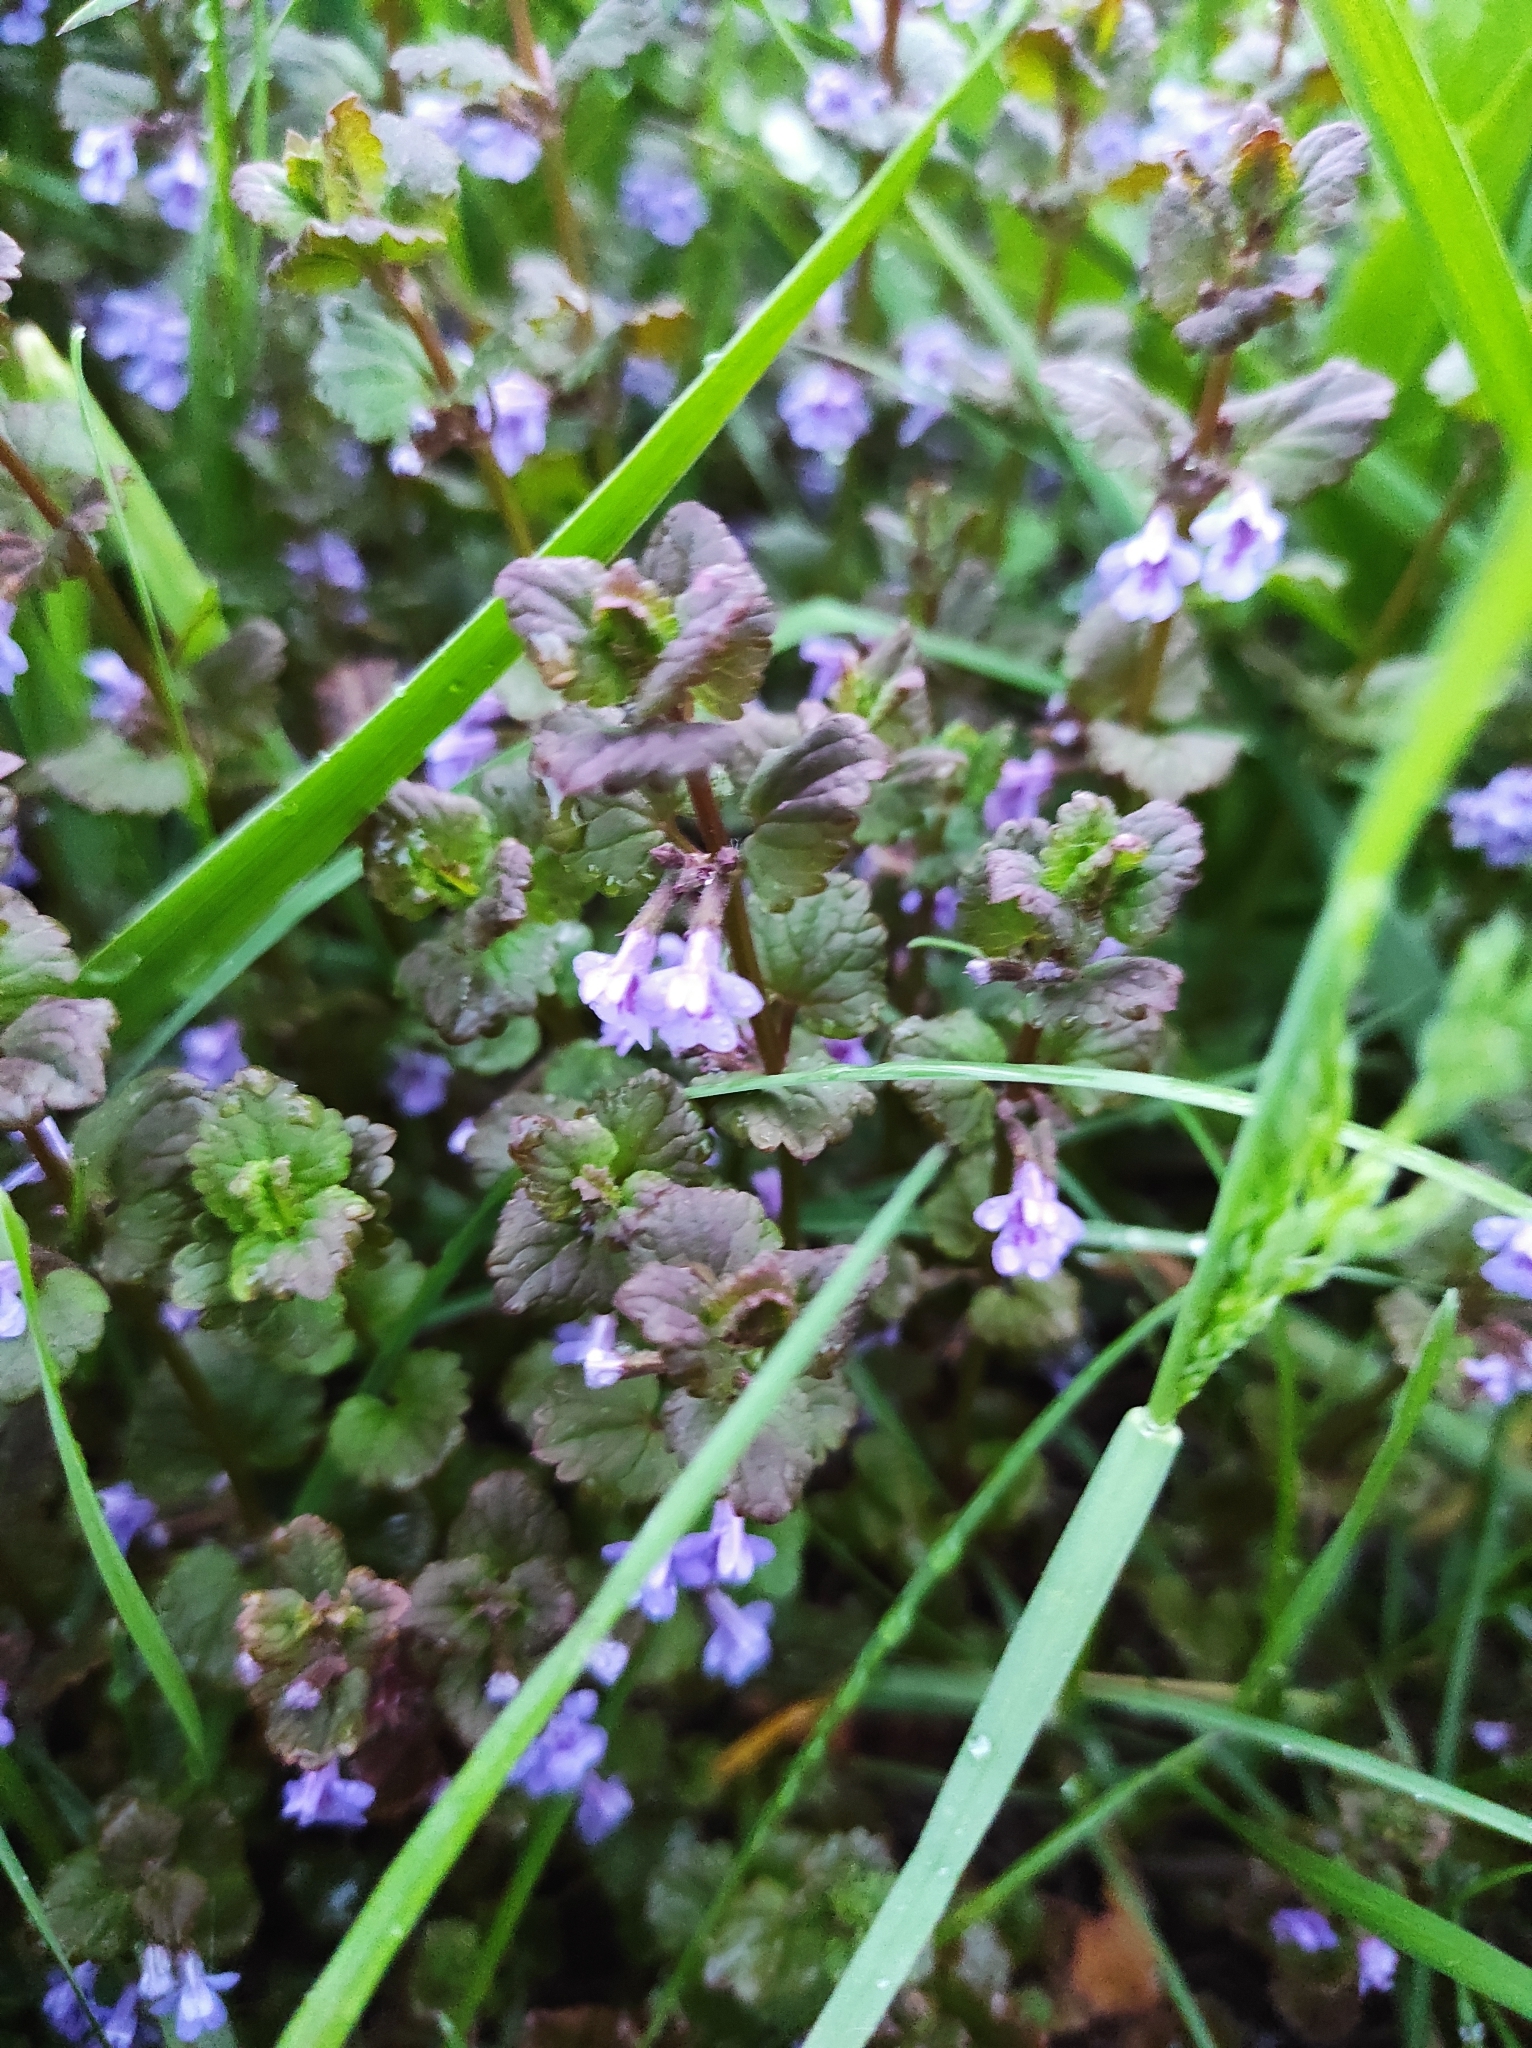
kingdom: Plantae
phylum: Tracheophyta
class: Magnoliopsida
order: Lamiales
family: Lamiaceae
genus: Glechoma
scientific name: Glechoma hederacea
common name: Ground ivy
